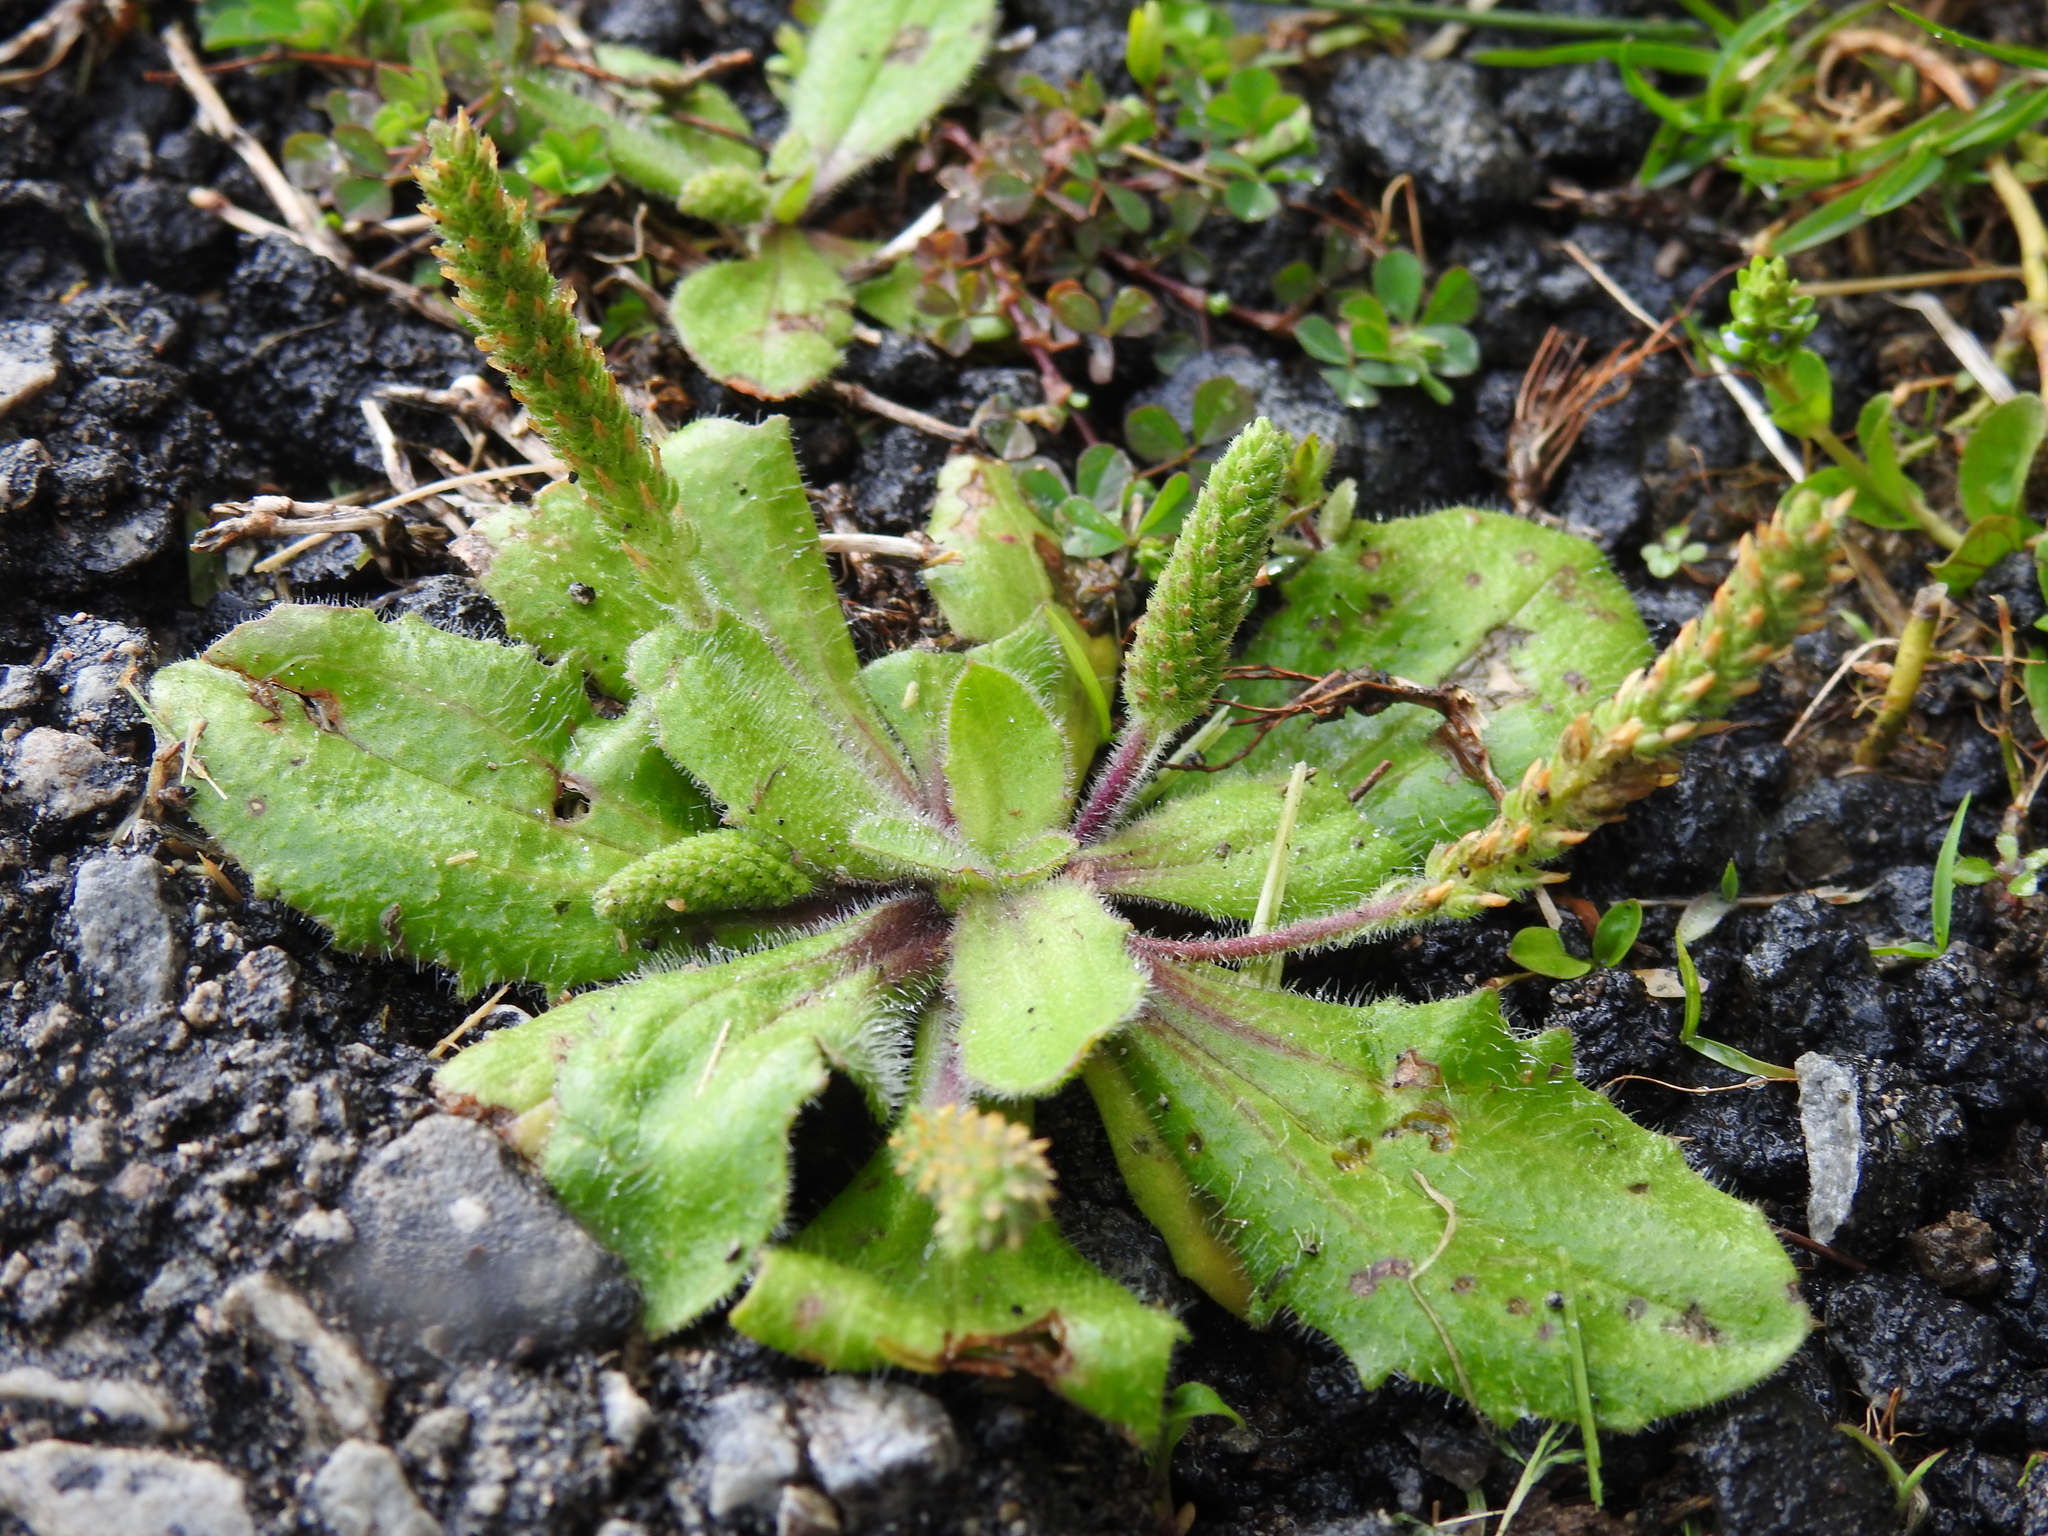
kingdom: Plantae
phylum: Tracheophyta
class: Magnoliopsida
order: Lamiales
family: Plantaginaceae
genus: Plantago
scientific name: Plantago virginica
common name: Hoary plantain
